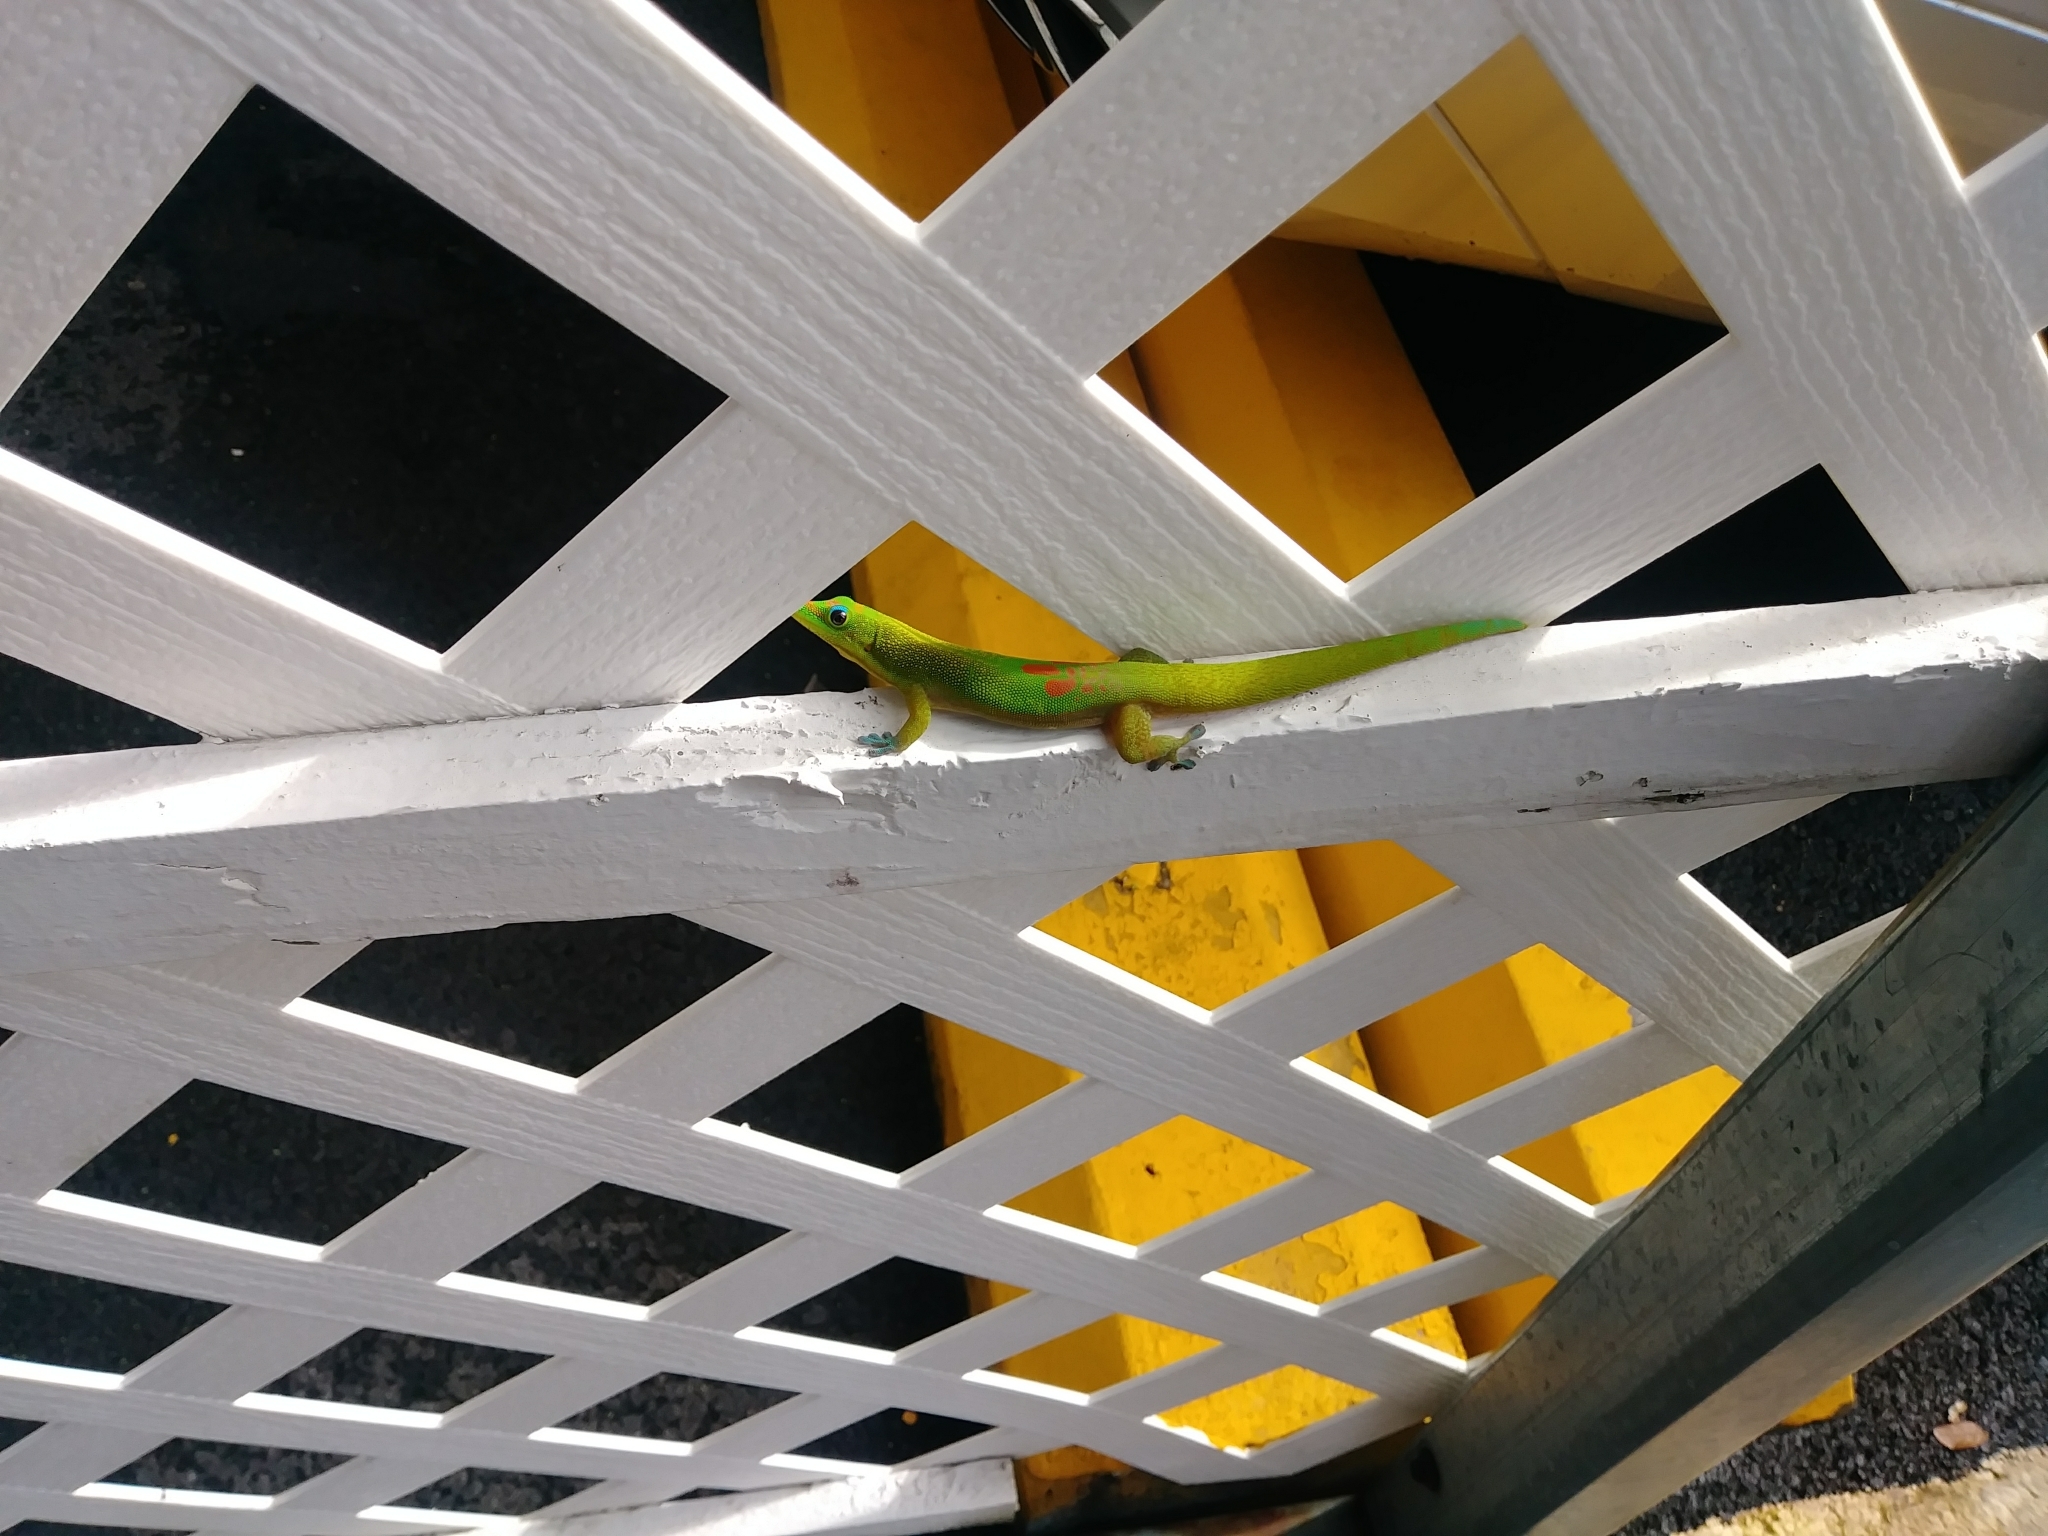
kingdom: Animalia
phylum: Chordata
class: Squamata
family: Gekkonidae
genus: Phelsuma
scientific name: Phelsuma laticauda
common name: Gold dust day gecko
